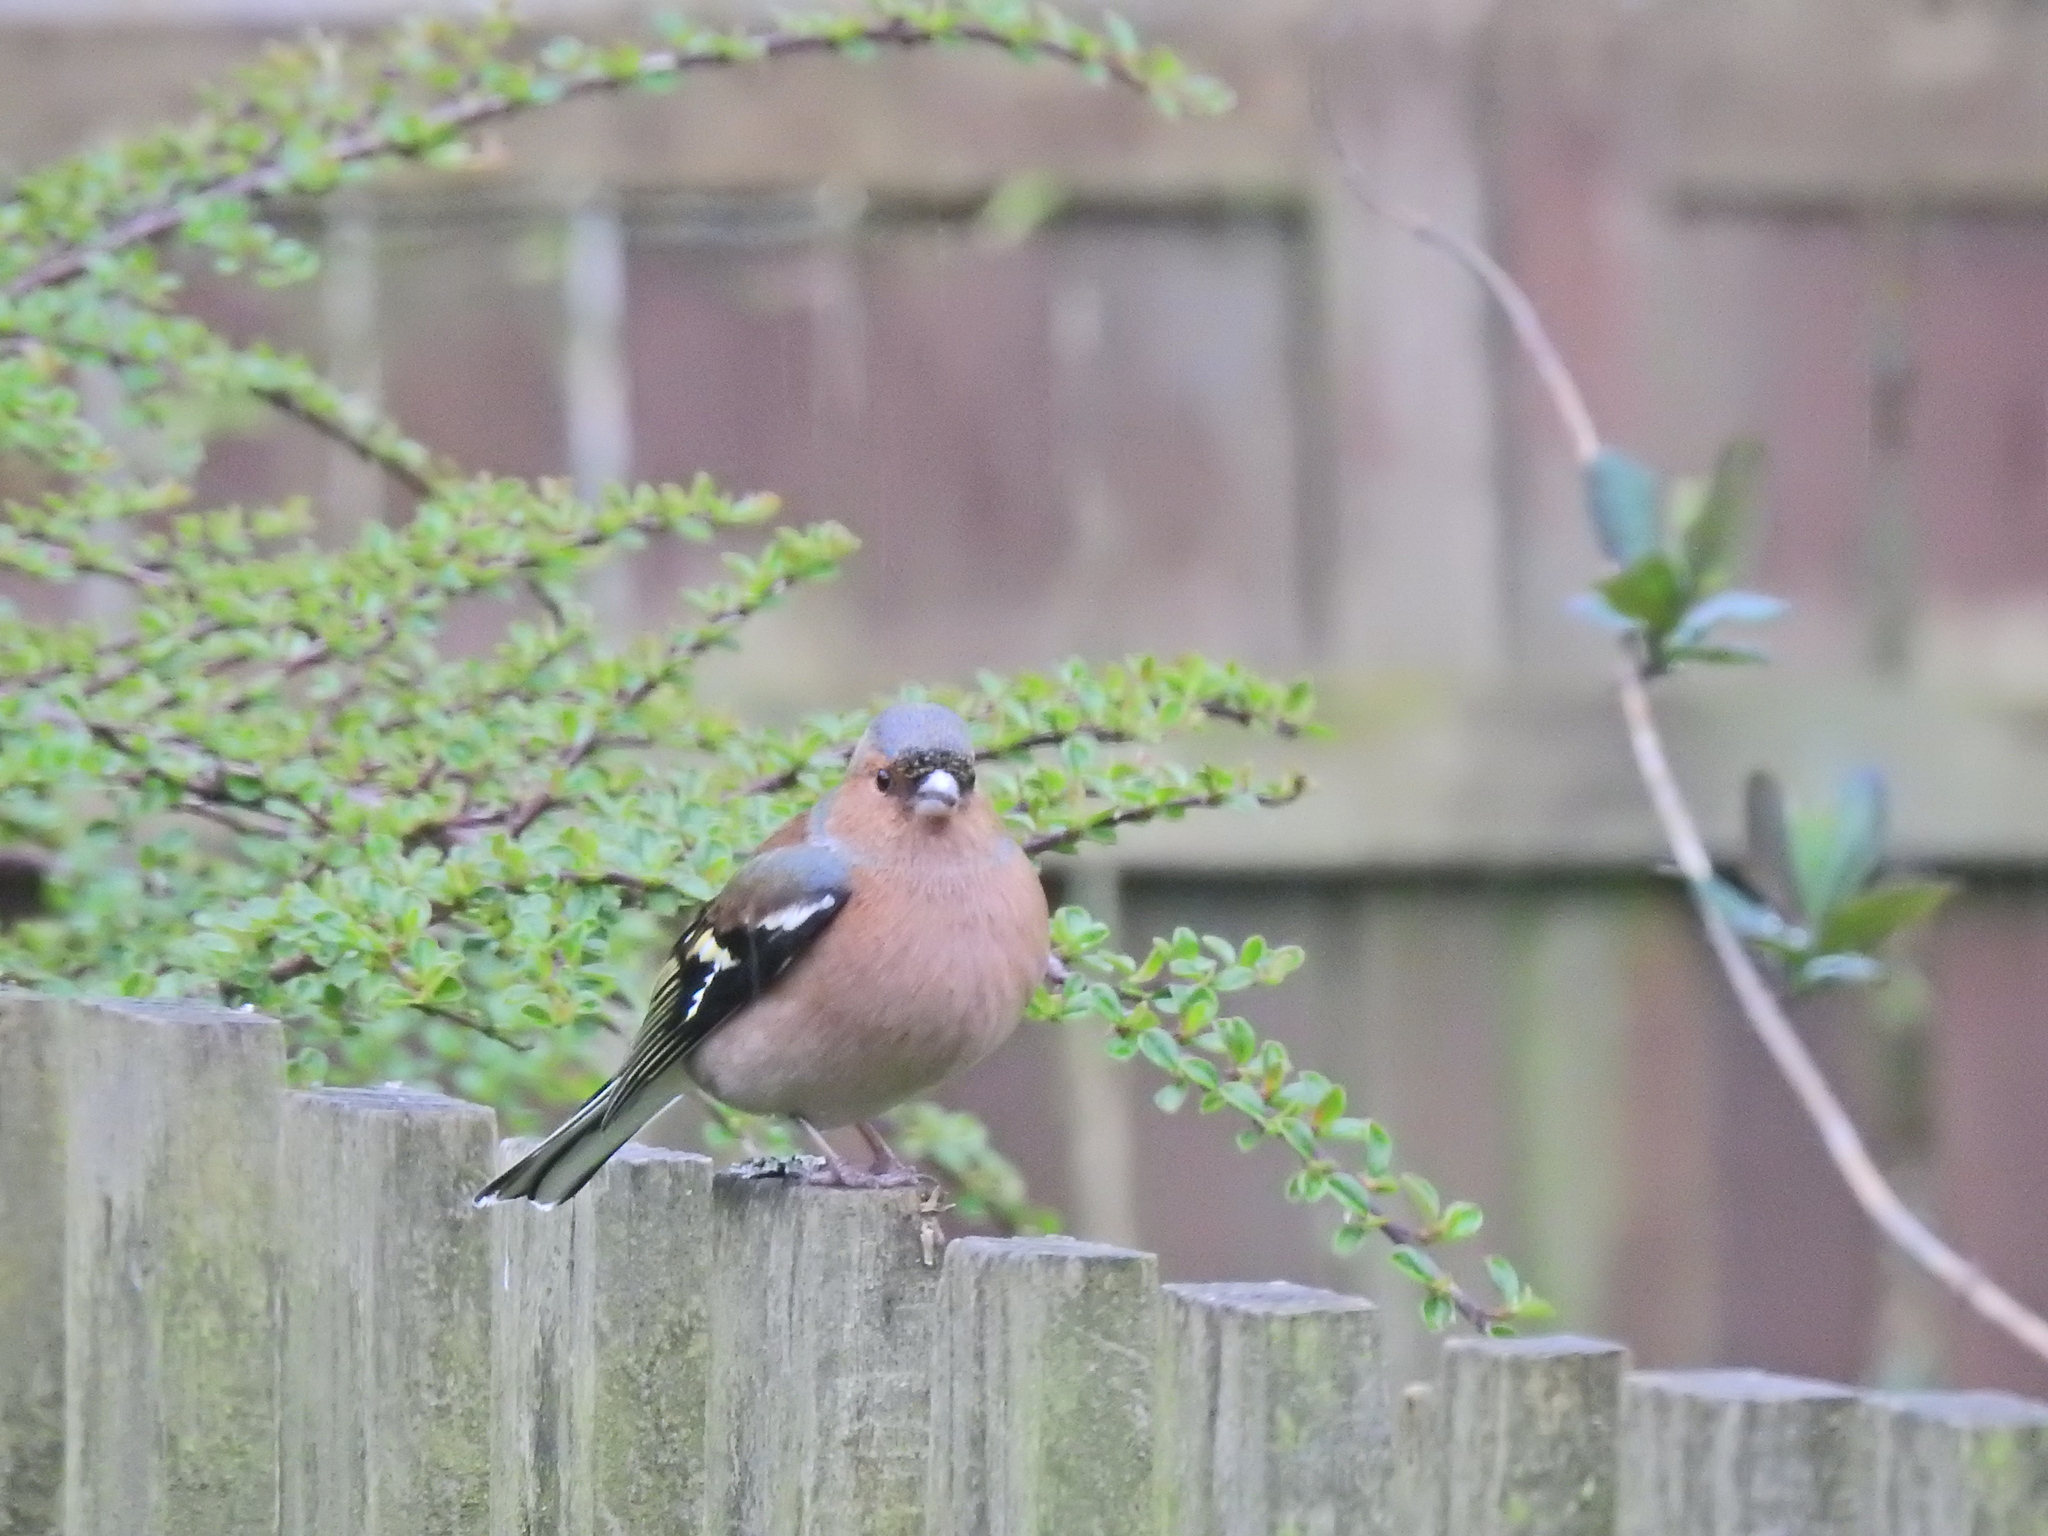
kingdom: Animalia
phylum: Chordata
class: Aves
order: Passeriformes
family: Fringillidae
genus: Fringilla
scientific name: Fringilla coelebs
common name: Common chaffinch
